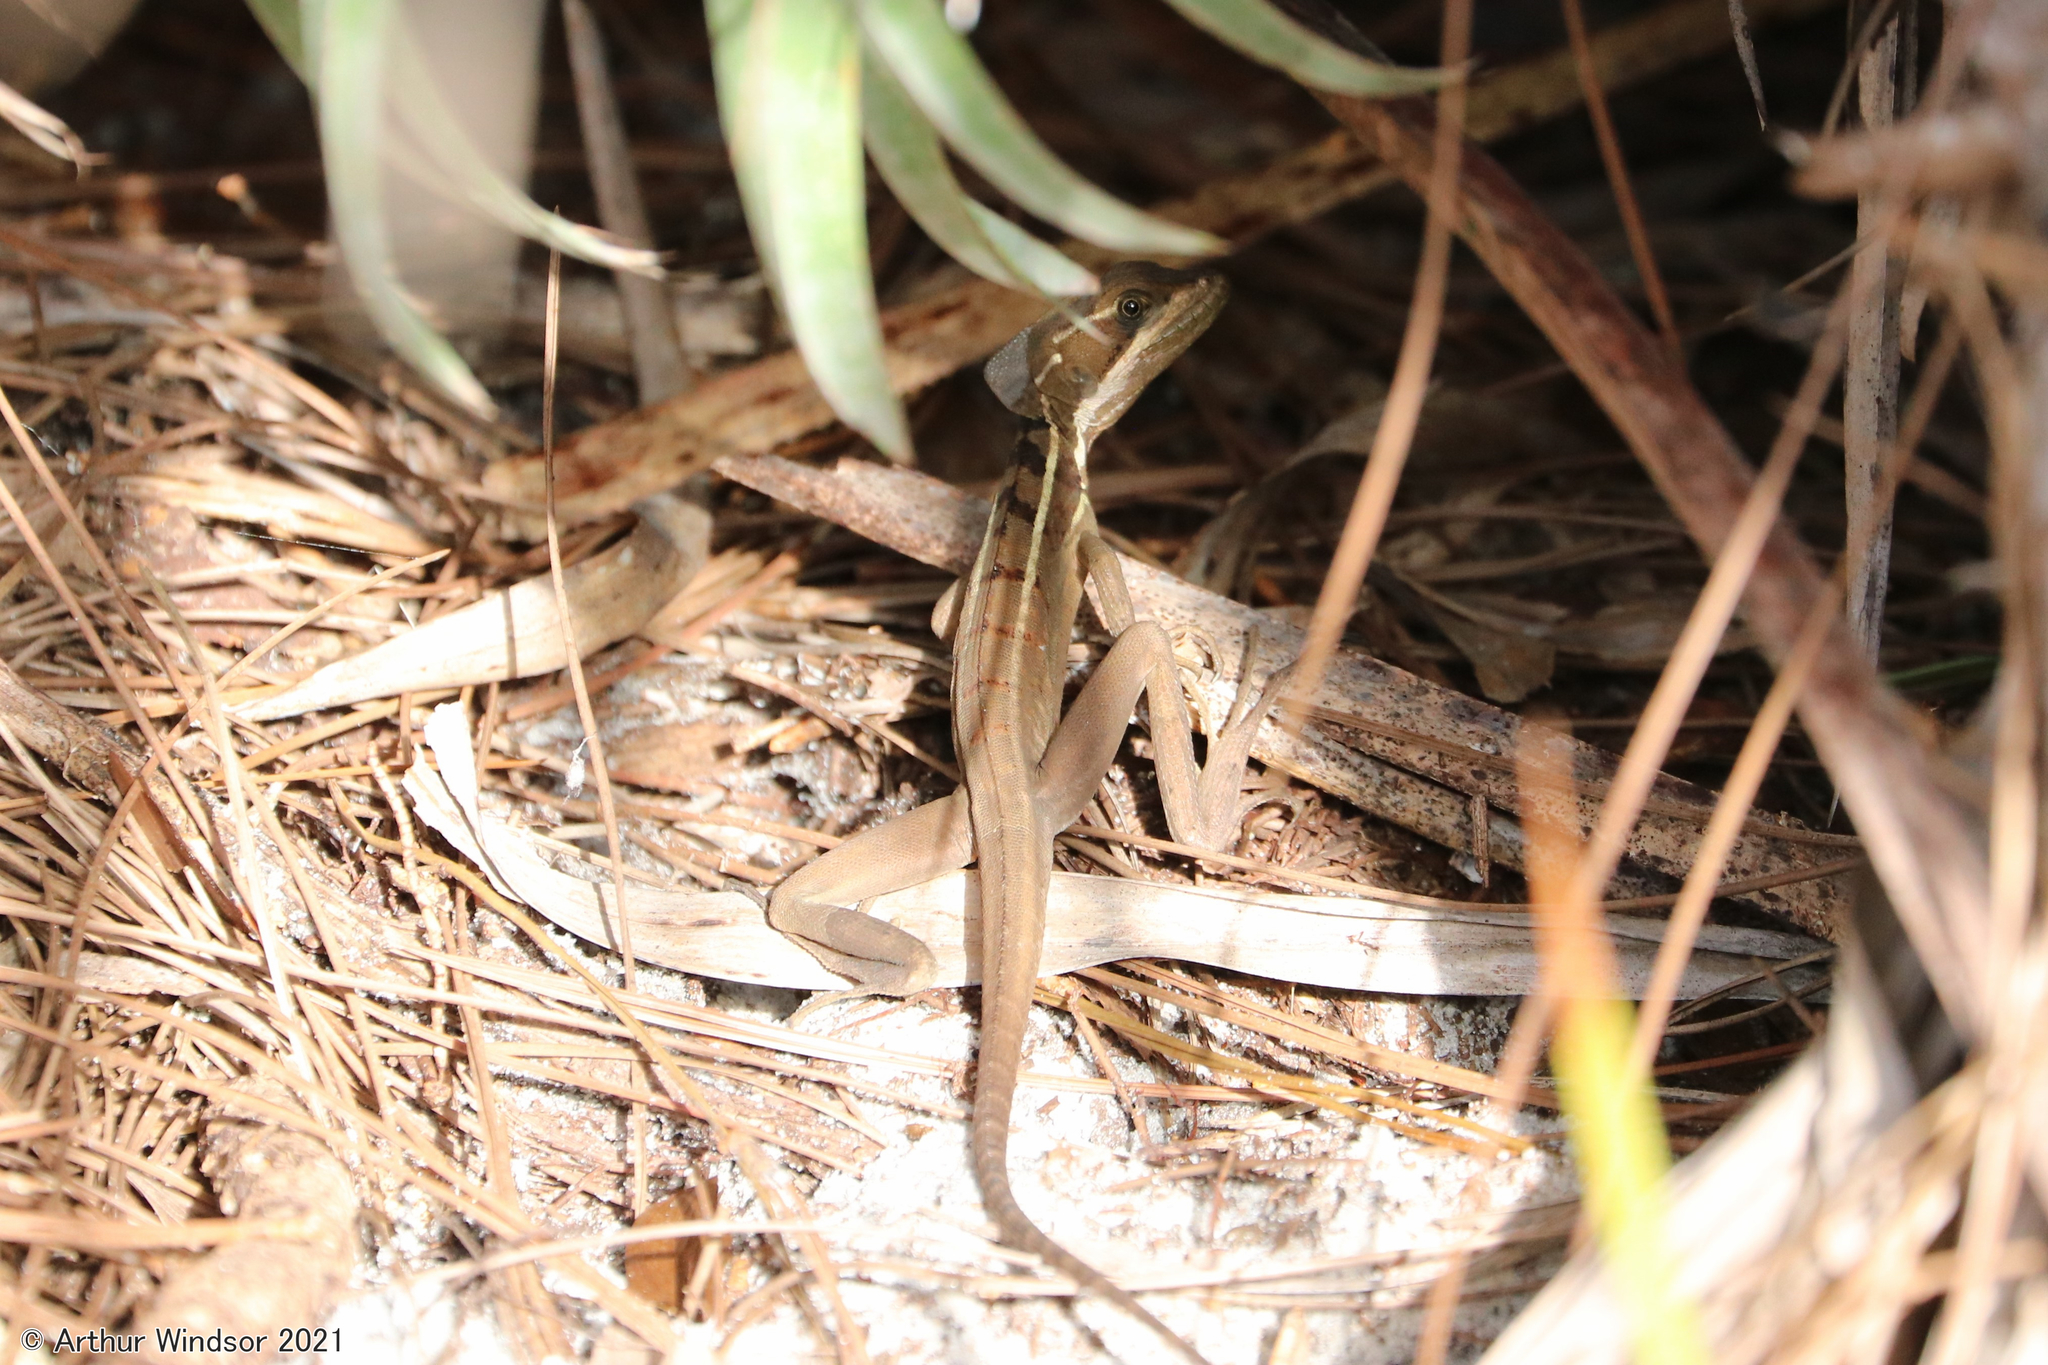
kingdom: Animalia
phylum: Chordata
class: Squamata
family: Corytophanidae
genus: Basiliscus
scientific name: Basiliscus vittatus
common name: Brown basilisk
